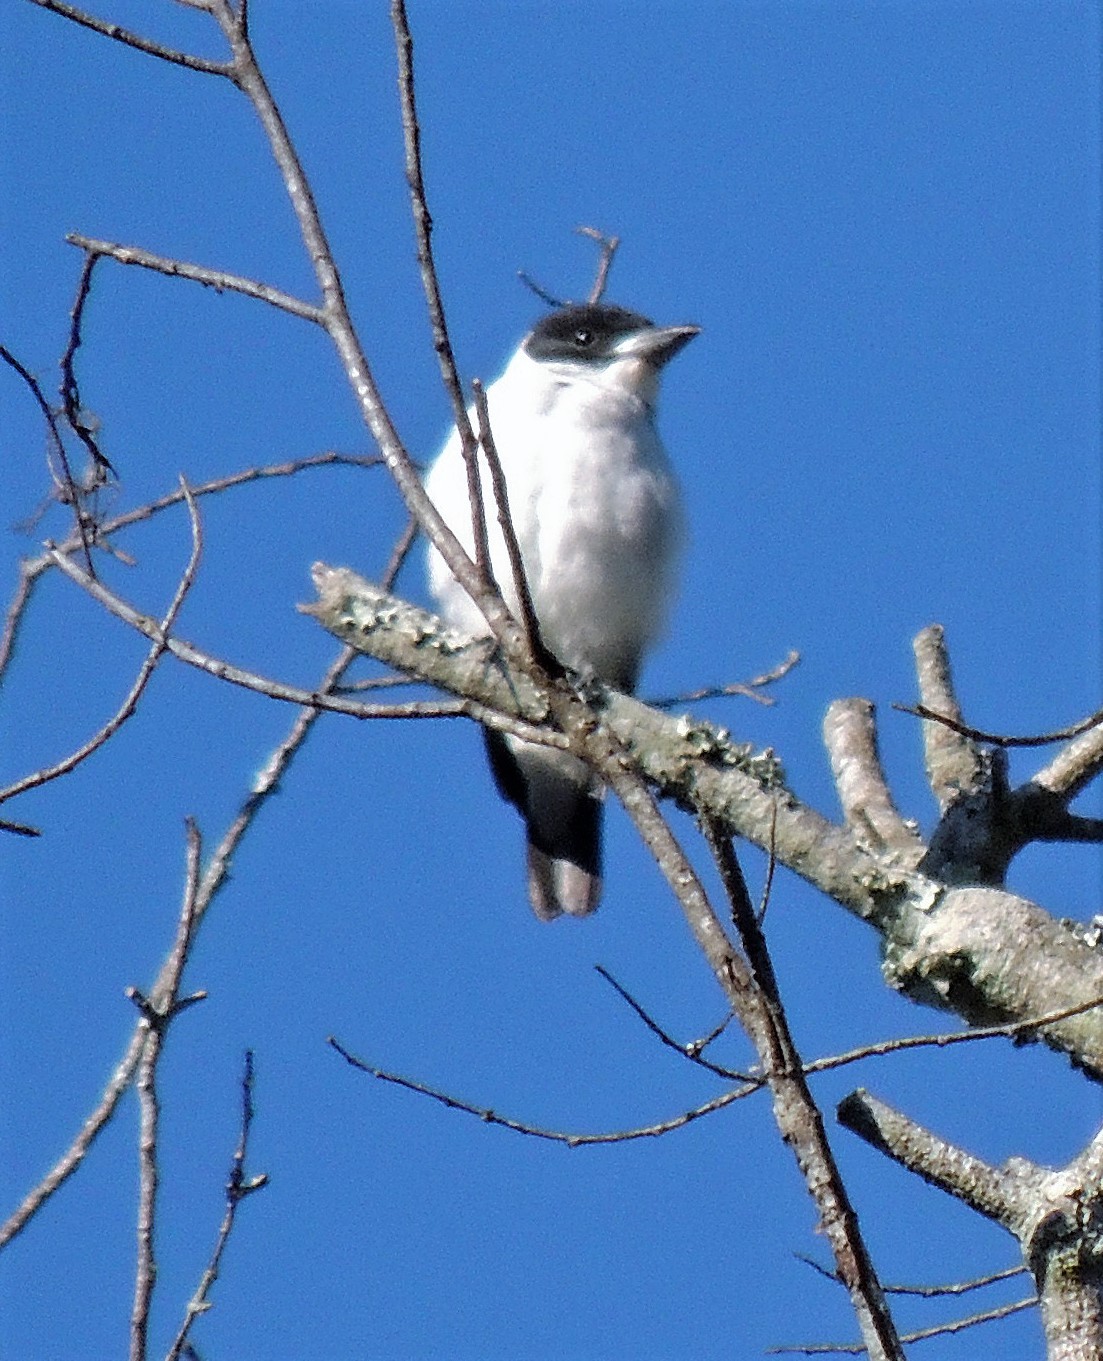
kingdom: Animalia
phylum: Chordata
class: Aves
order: Passeriformes
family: Cotingidae
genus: Tityra
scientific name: Tityra inquisitor
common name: Black-crowned tityra
